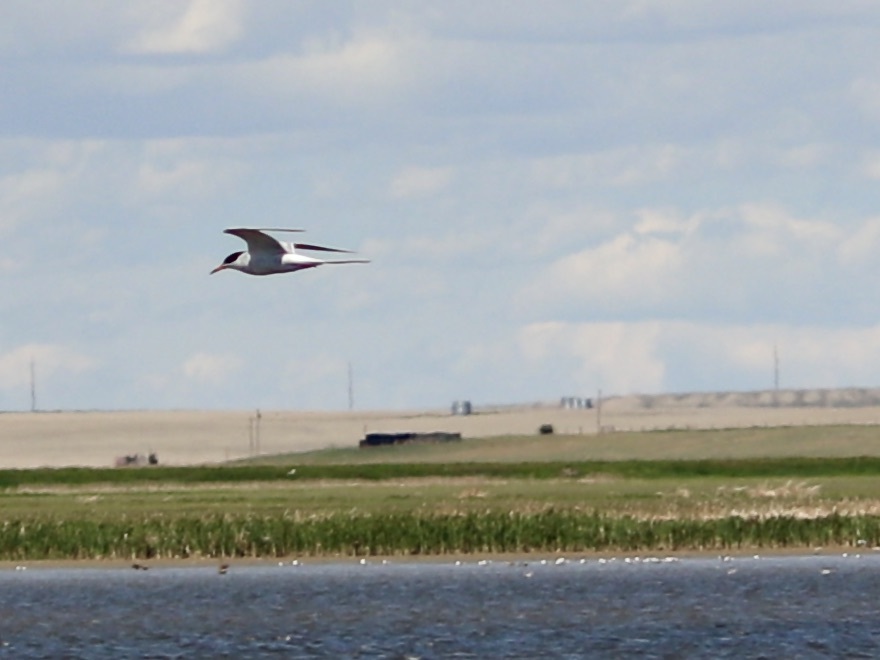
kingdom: Animalia
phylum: Chordata
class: Aves
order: Charadriiformes
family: Laridae
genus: Sterna
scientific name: Sterna hirundo
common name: Common tern
